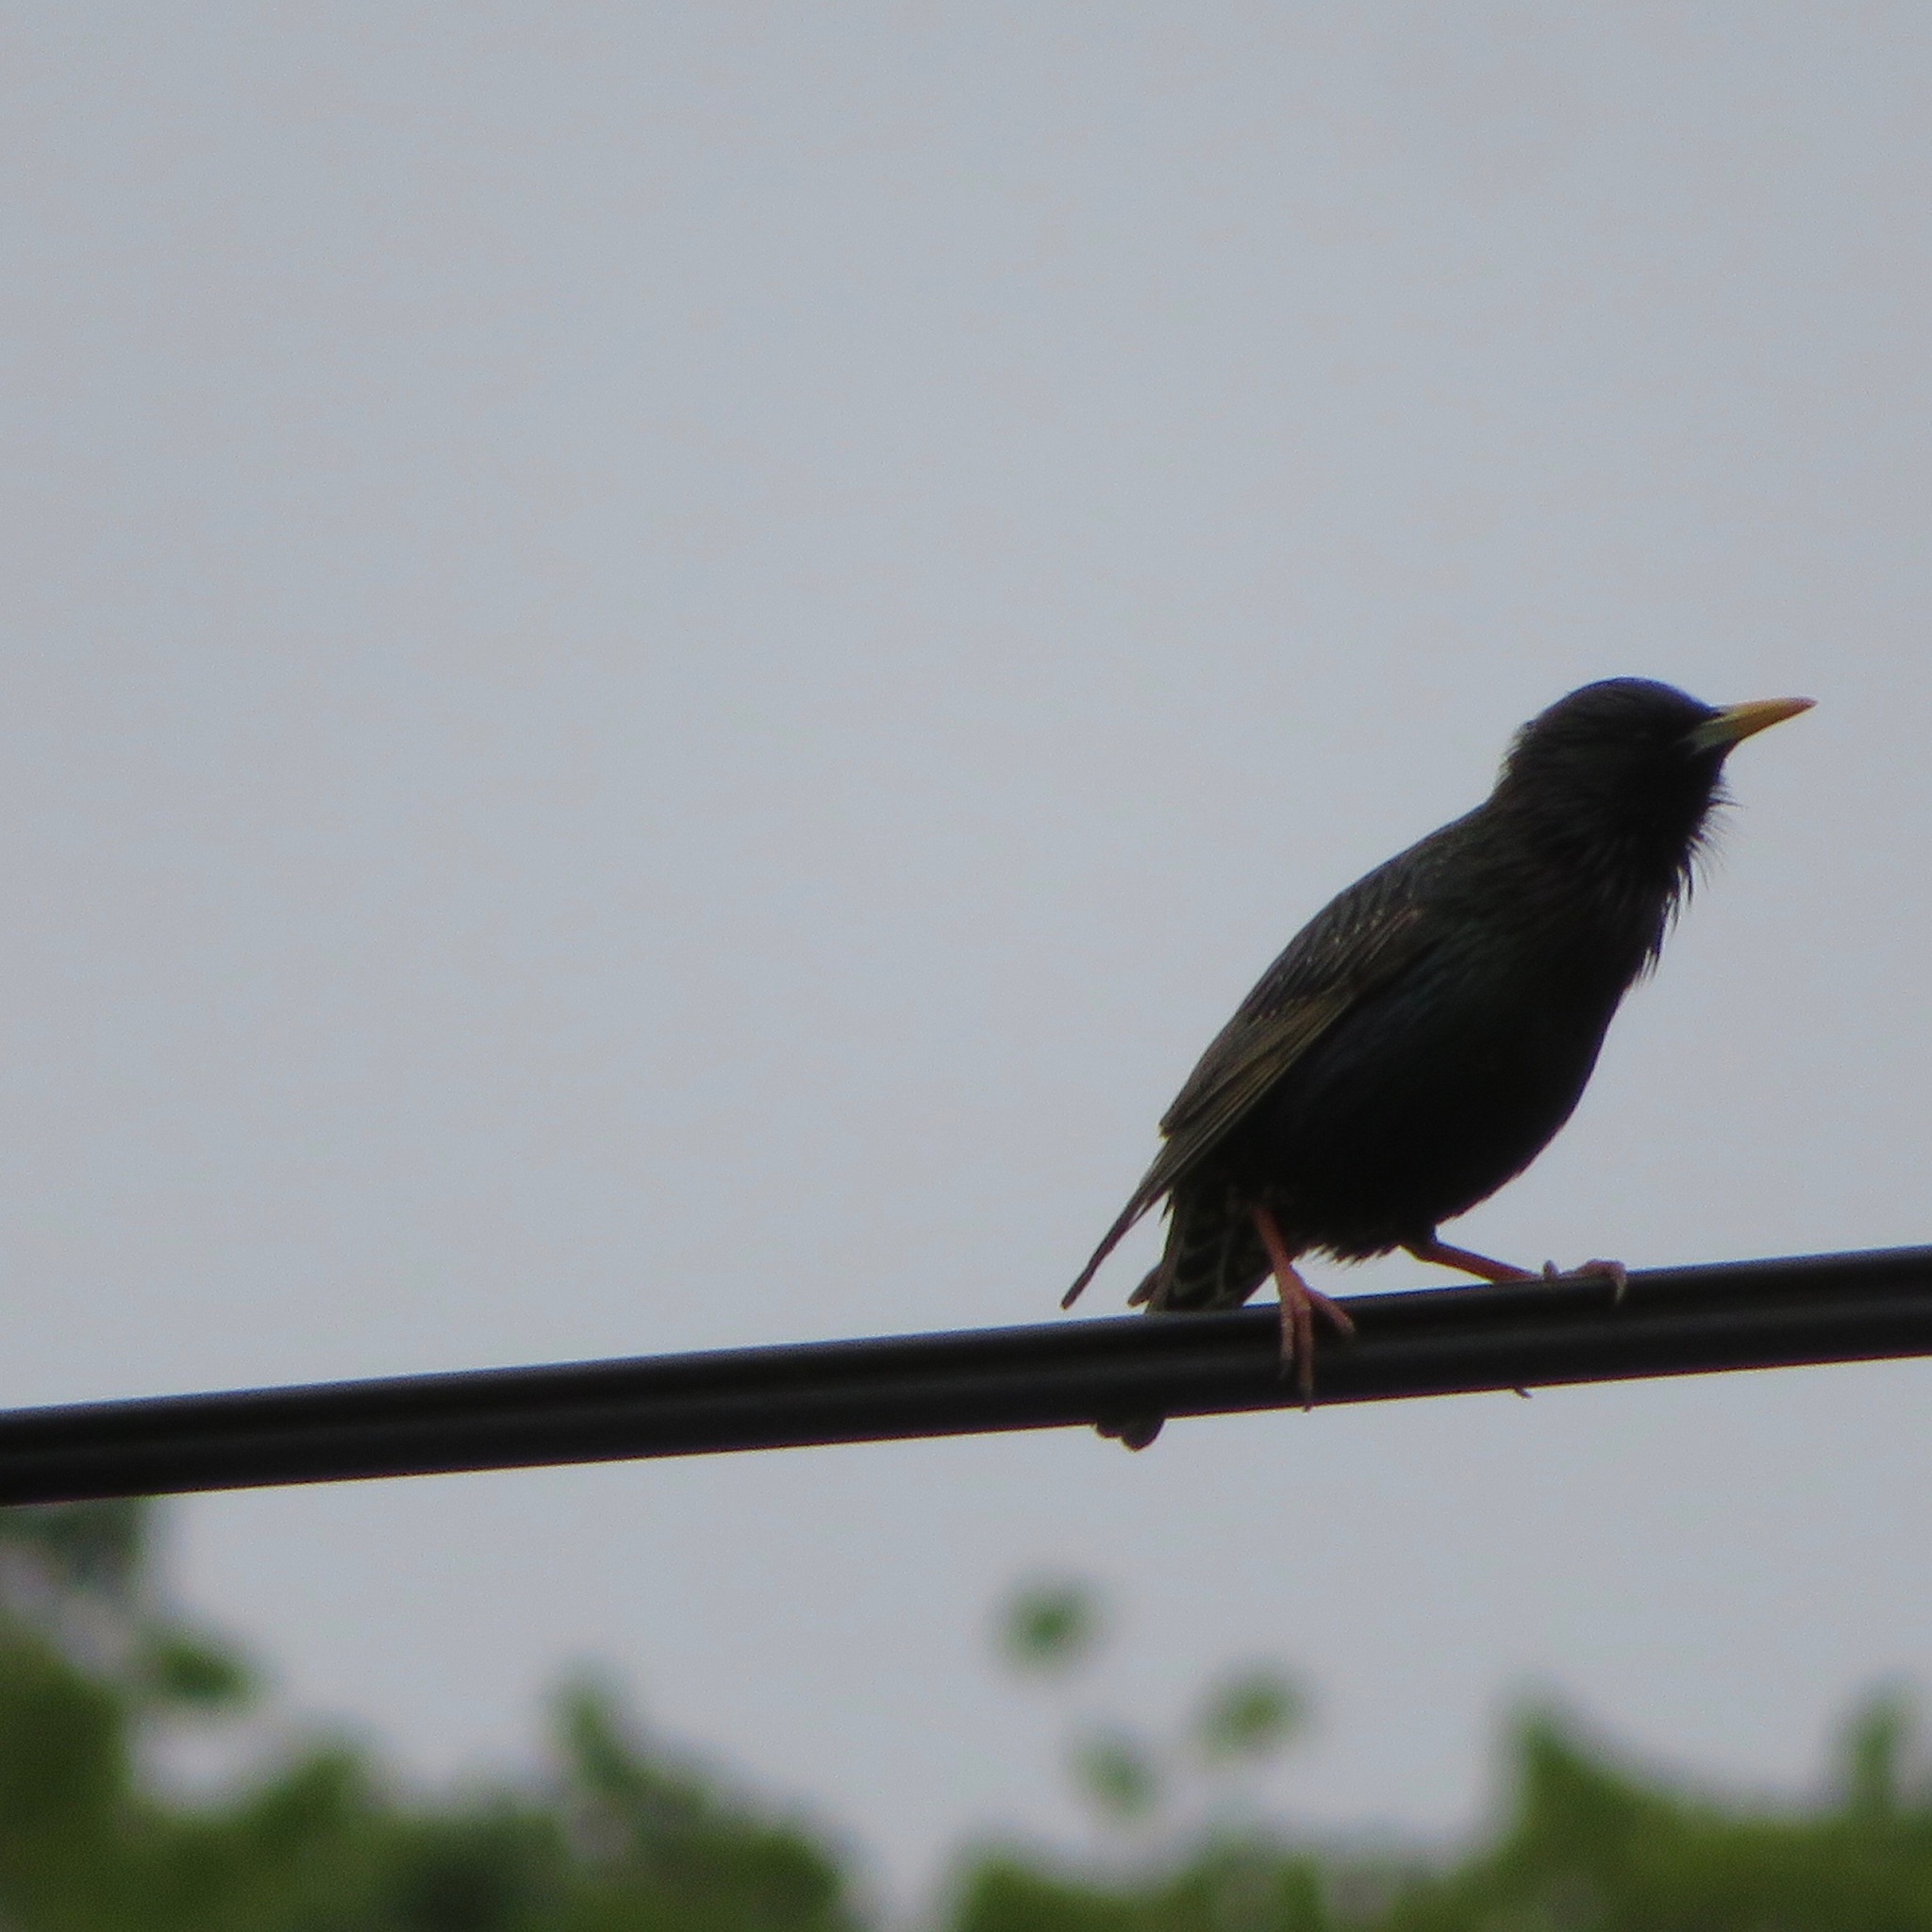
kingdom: Animalia
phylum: Chordata
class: Aves
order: Passeriformes
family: Sturnidae
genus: Sturnus
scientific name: Sturnus vulgaris
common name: Common starling
